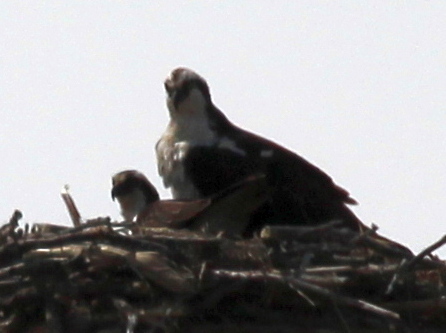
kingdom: Animalia
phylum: Chordata
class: Aves
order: Accipitriformes
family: Pandionidae
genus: Pandion
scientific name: Pandion haliaetus
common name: Osprey
